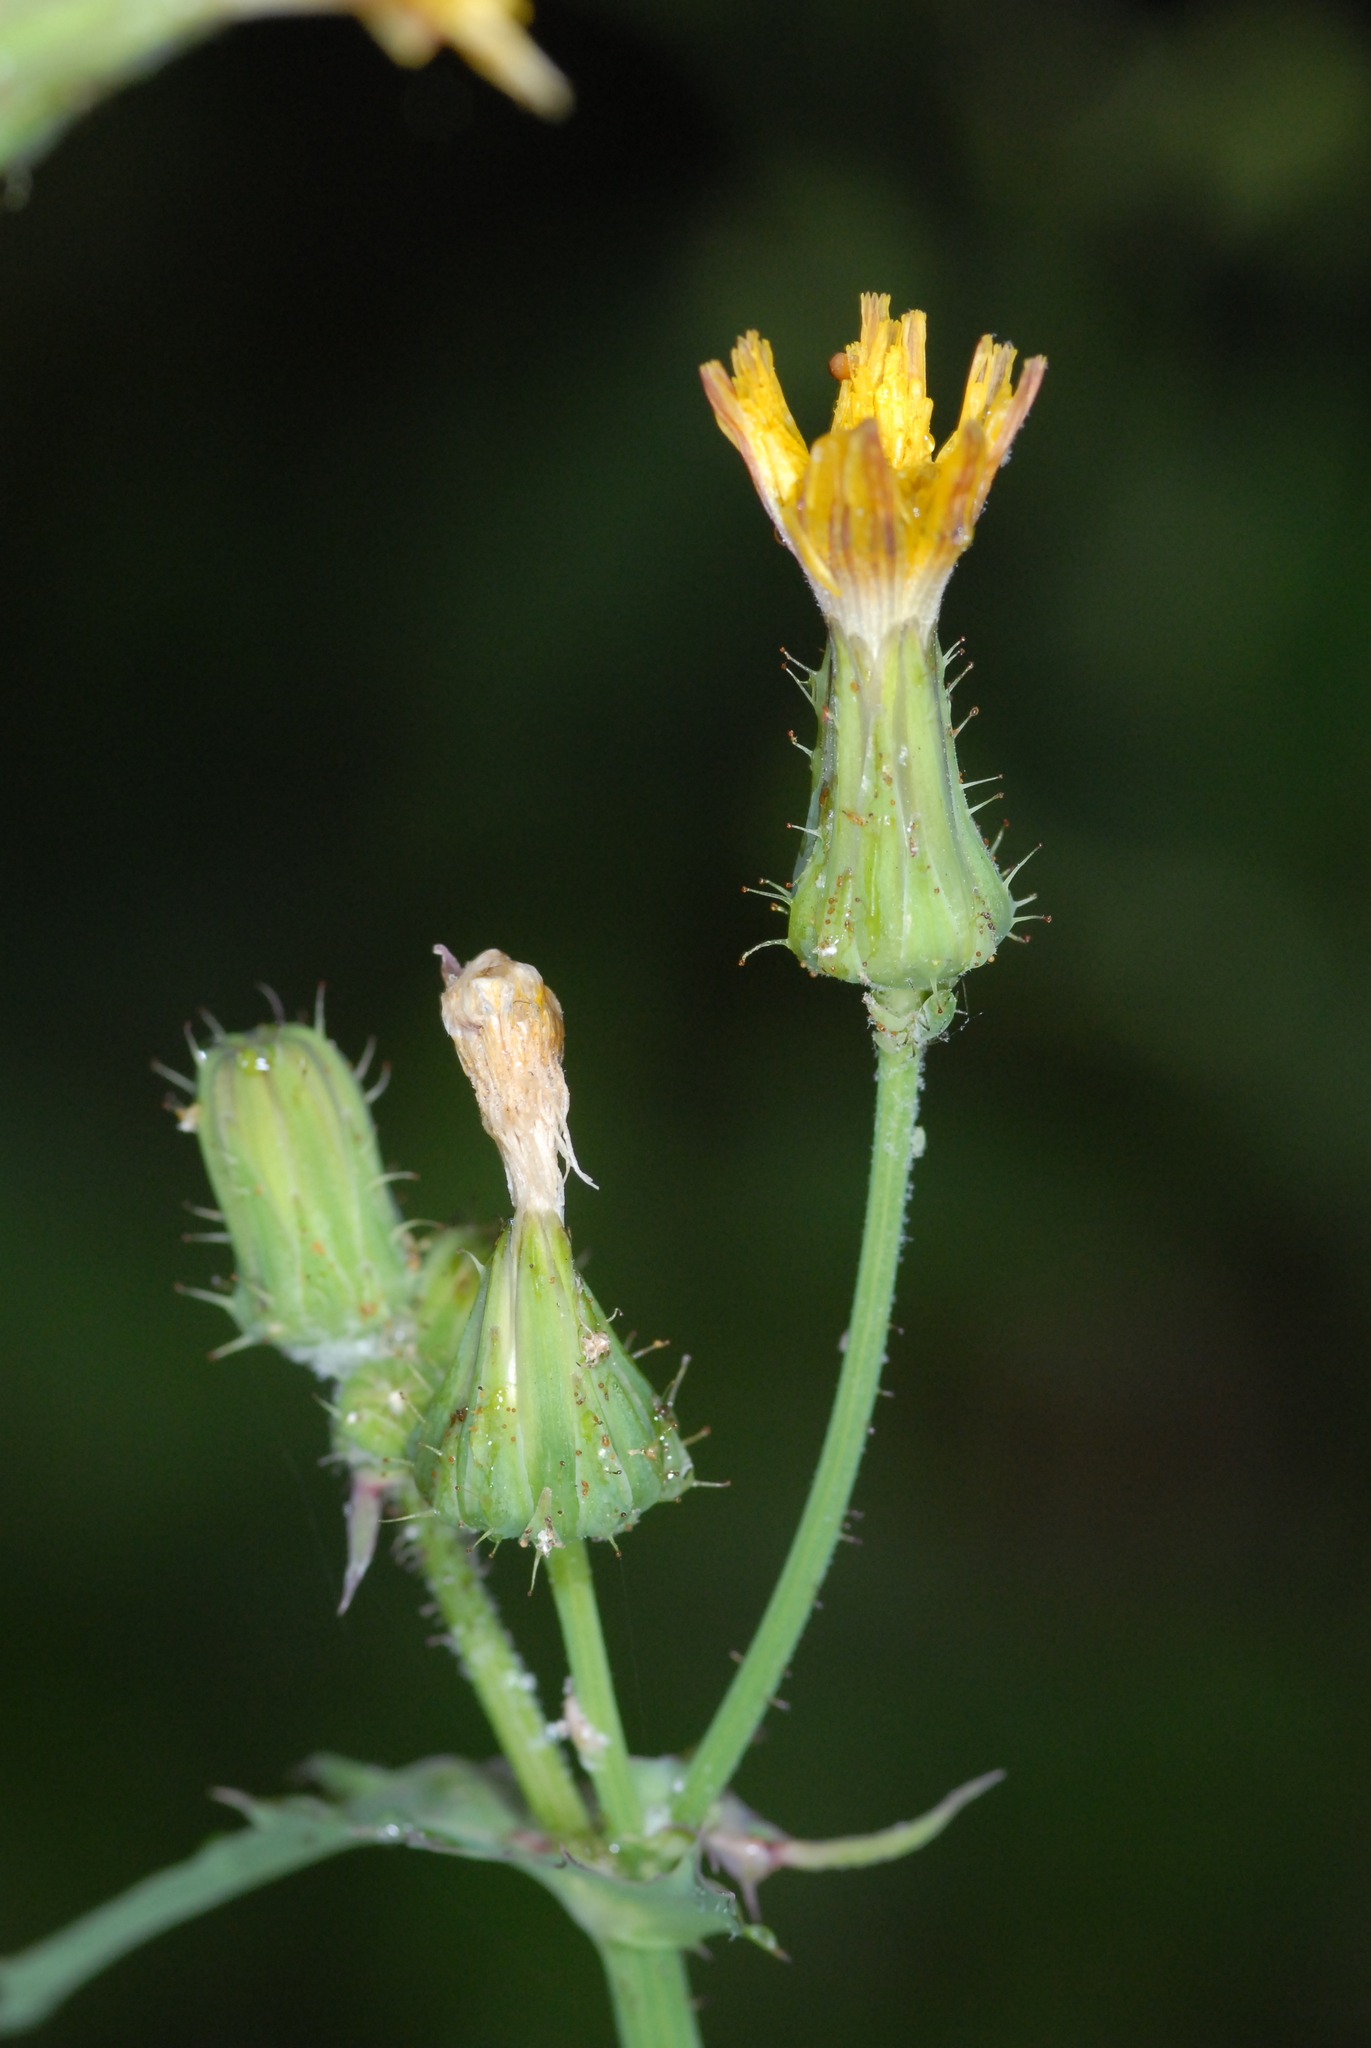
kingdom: Plantae
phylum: Tracheophyta
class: Magnoliopsida
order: Asterales
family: Asteraceae
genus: Sonchus
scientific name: Sonchus oleraceus
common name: Common sowthistle
